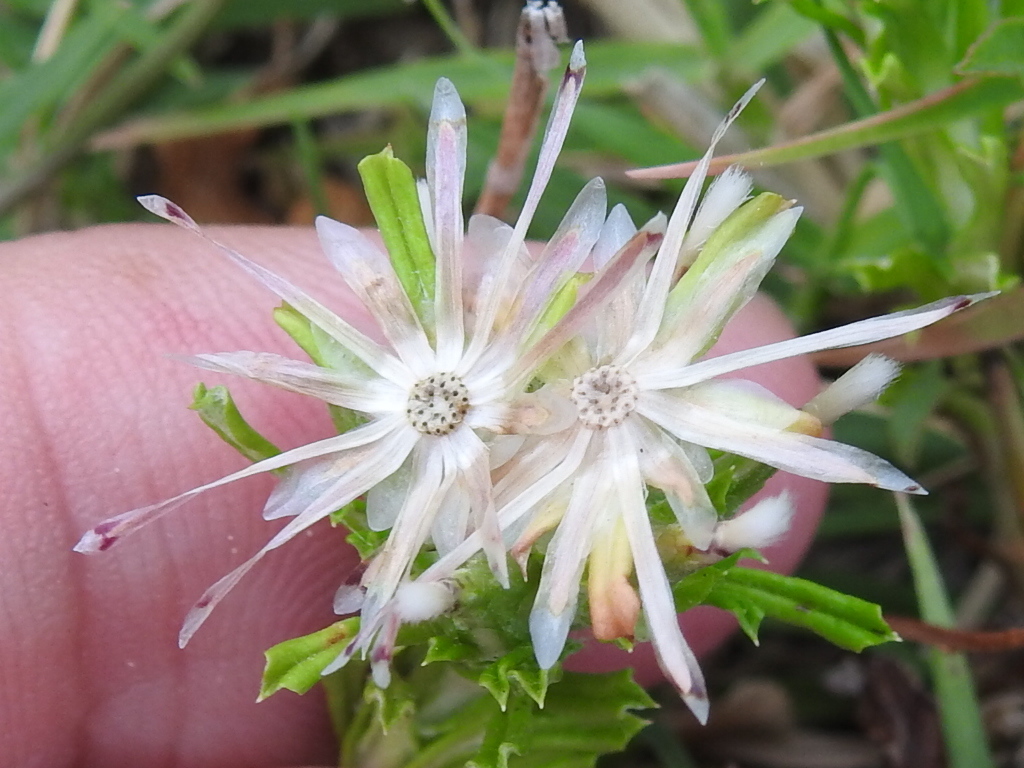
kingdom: Plantae
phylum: Tracheophyta
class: Magnoliopsida
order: Asterales
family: Asteraceae
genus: Facelis
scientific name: Facelis retusa
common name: Annual trampweed
